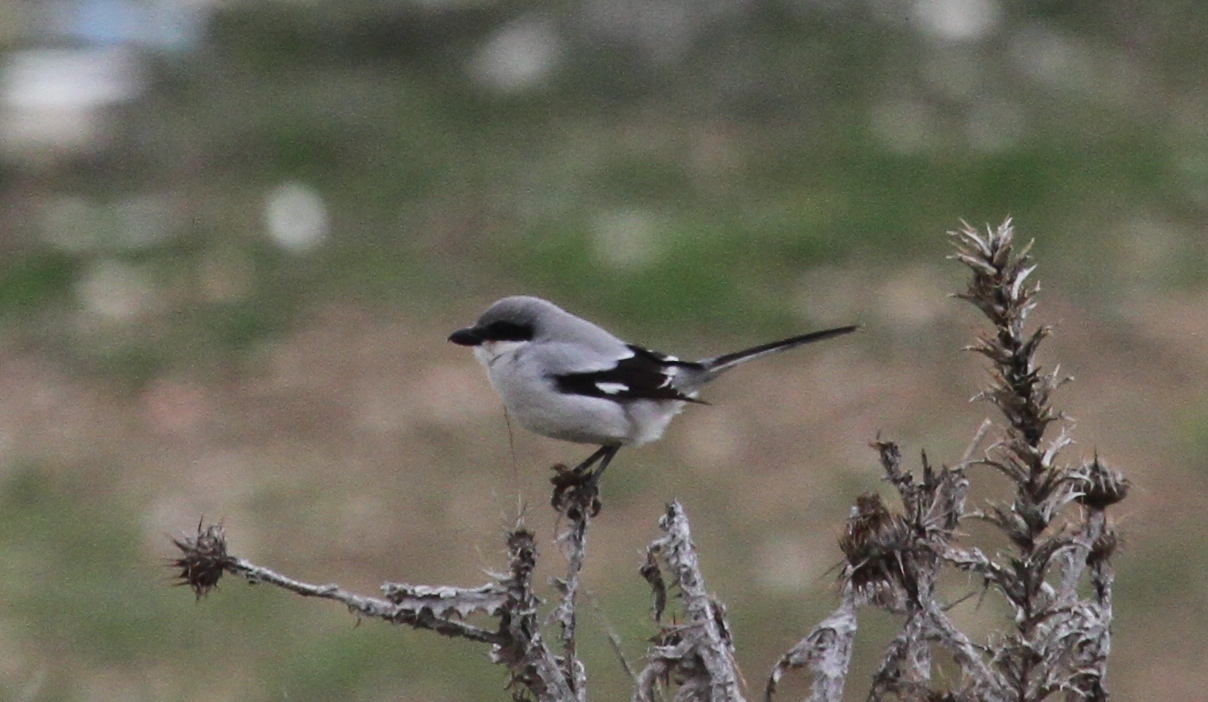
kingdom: Animalia
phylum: Chordata
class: Aves
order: Passeriformes
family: Laniidae
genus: Lanius
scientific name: Lanius excubitor
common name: Great grey shrike
